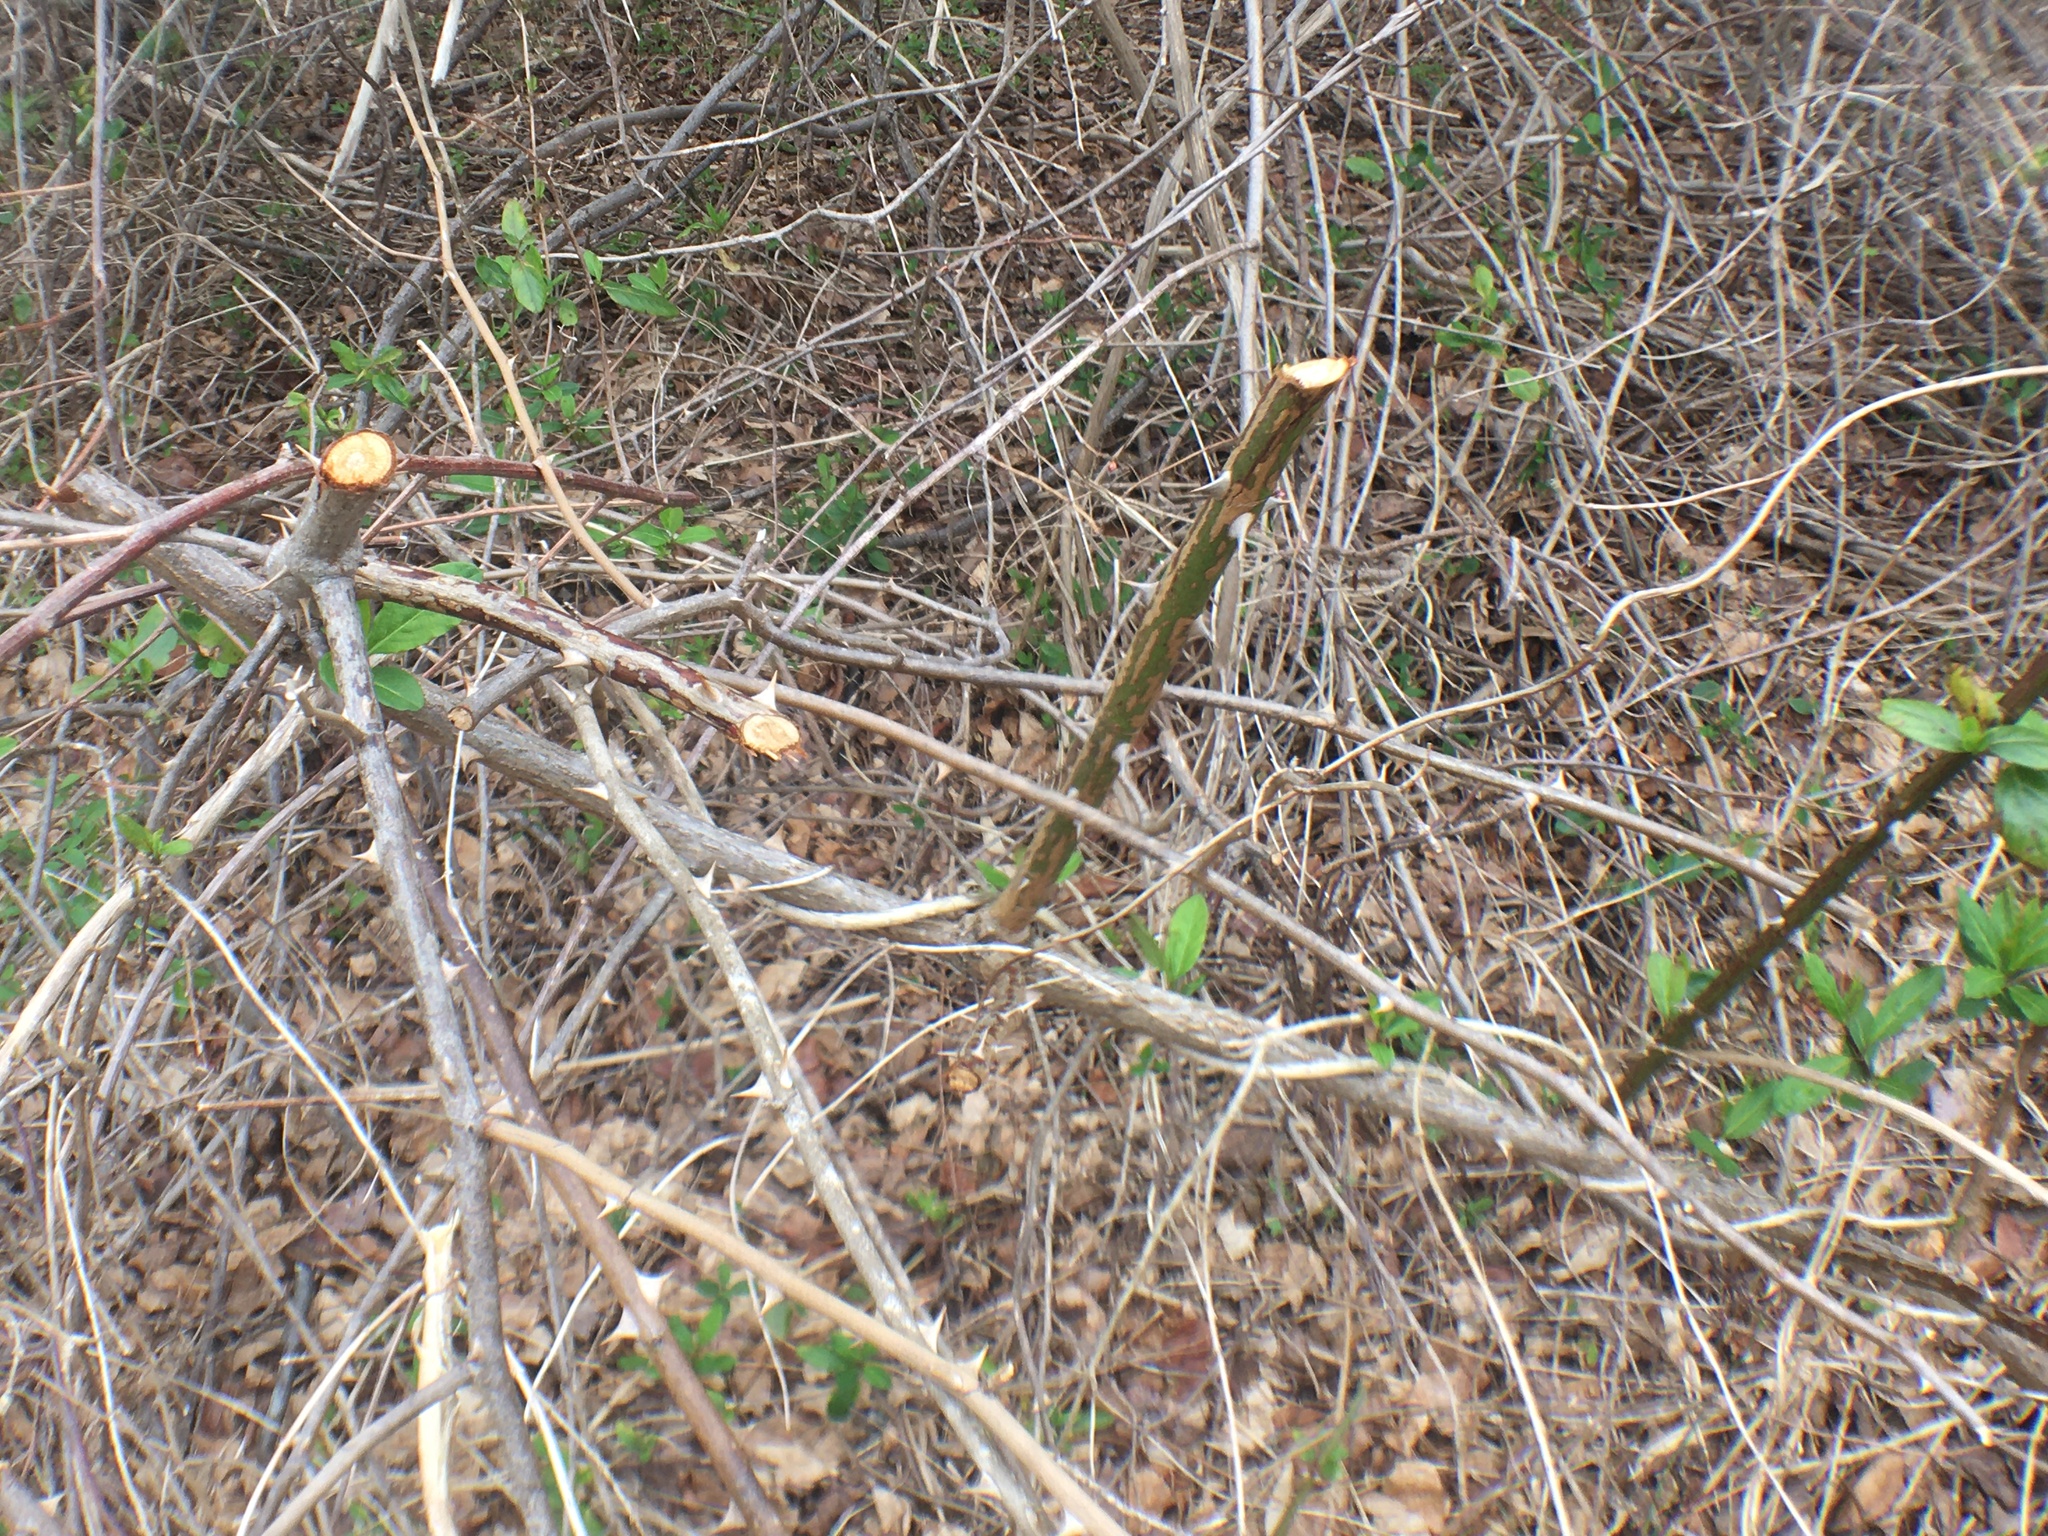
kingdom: Plantae
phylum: Tracheophyta
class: Magnoliopsida
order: Rosales
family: Rosaceae
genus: Rosa
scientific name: Rosa multiflora
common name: Multiflora rose
